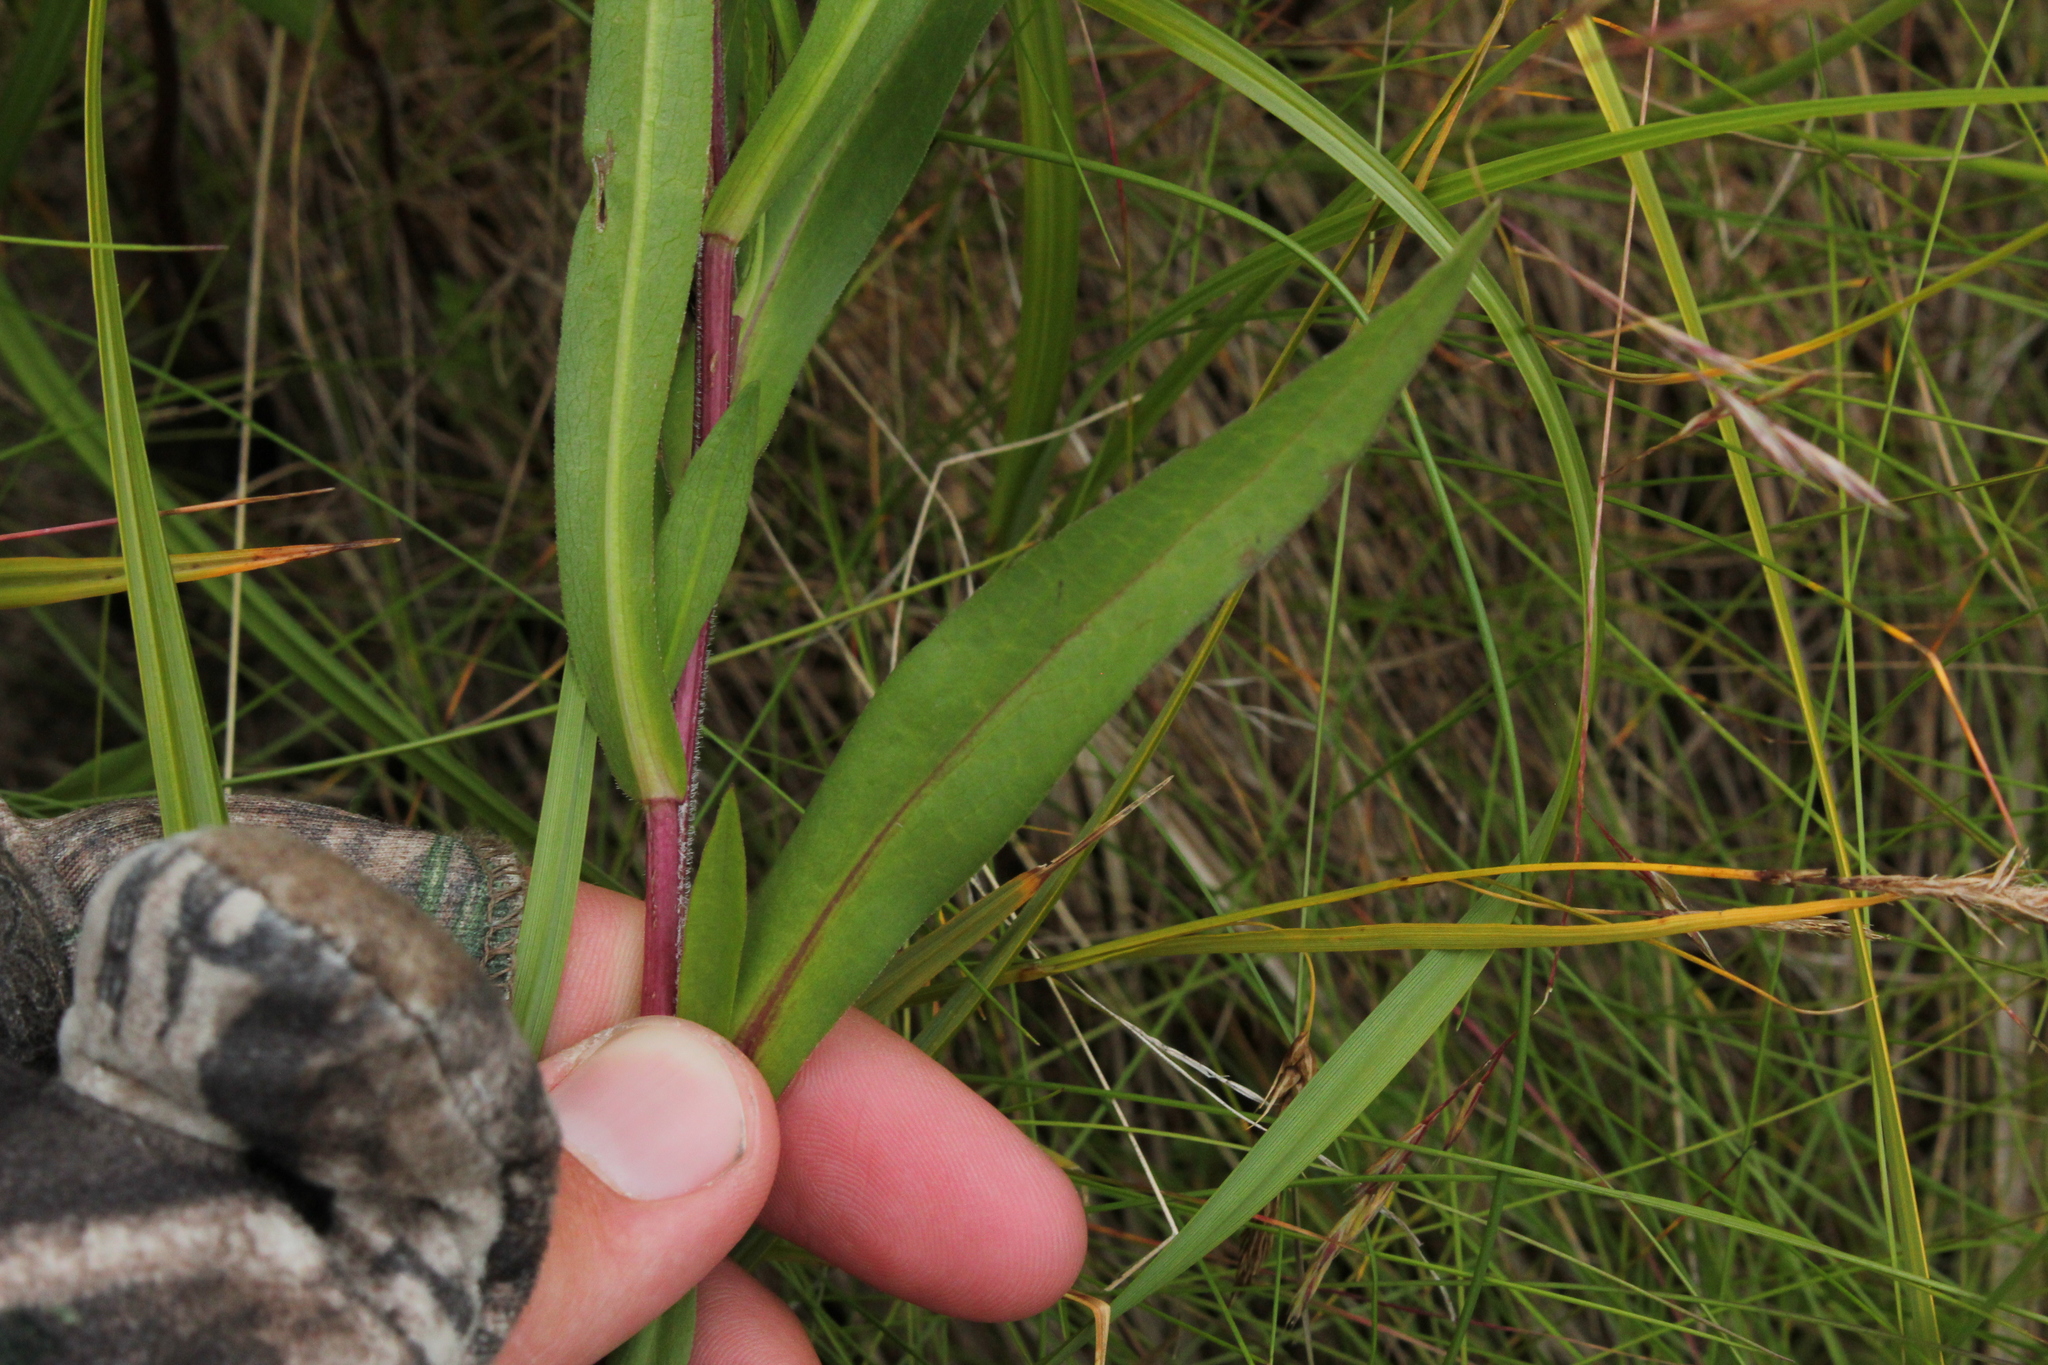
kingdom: Plantae
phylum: Tracheophyta
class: Magnoliopsida
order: Asterales
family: Asteraceae
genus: Symphyotrichum
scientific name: Symphyotrichum robynsianum
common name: Robyns' aster
